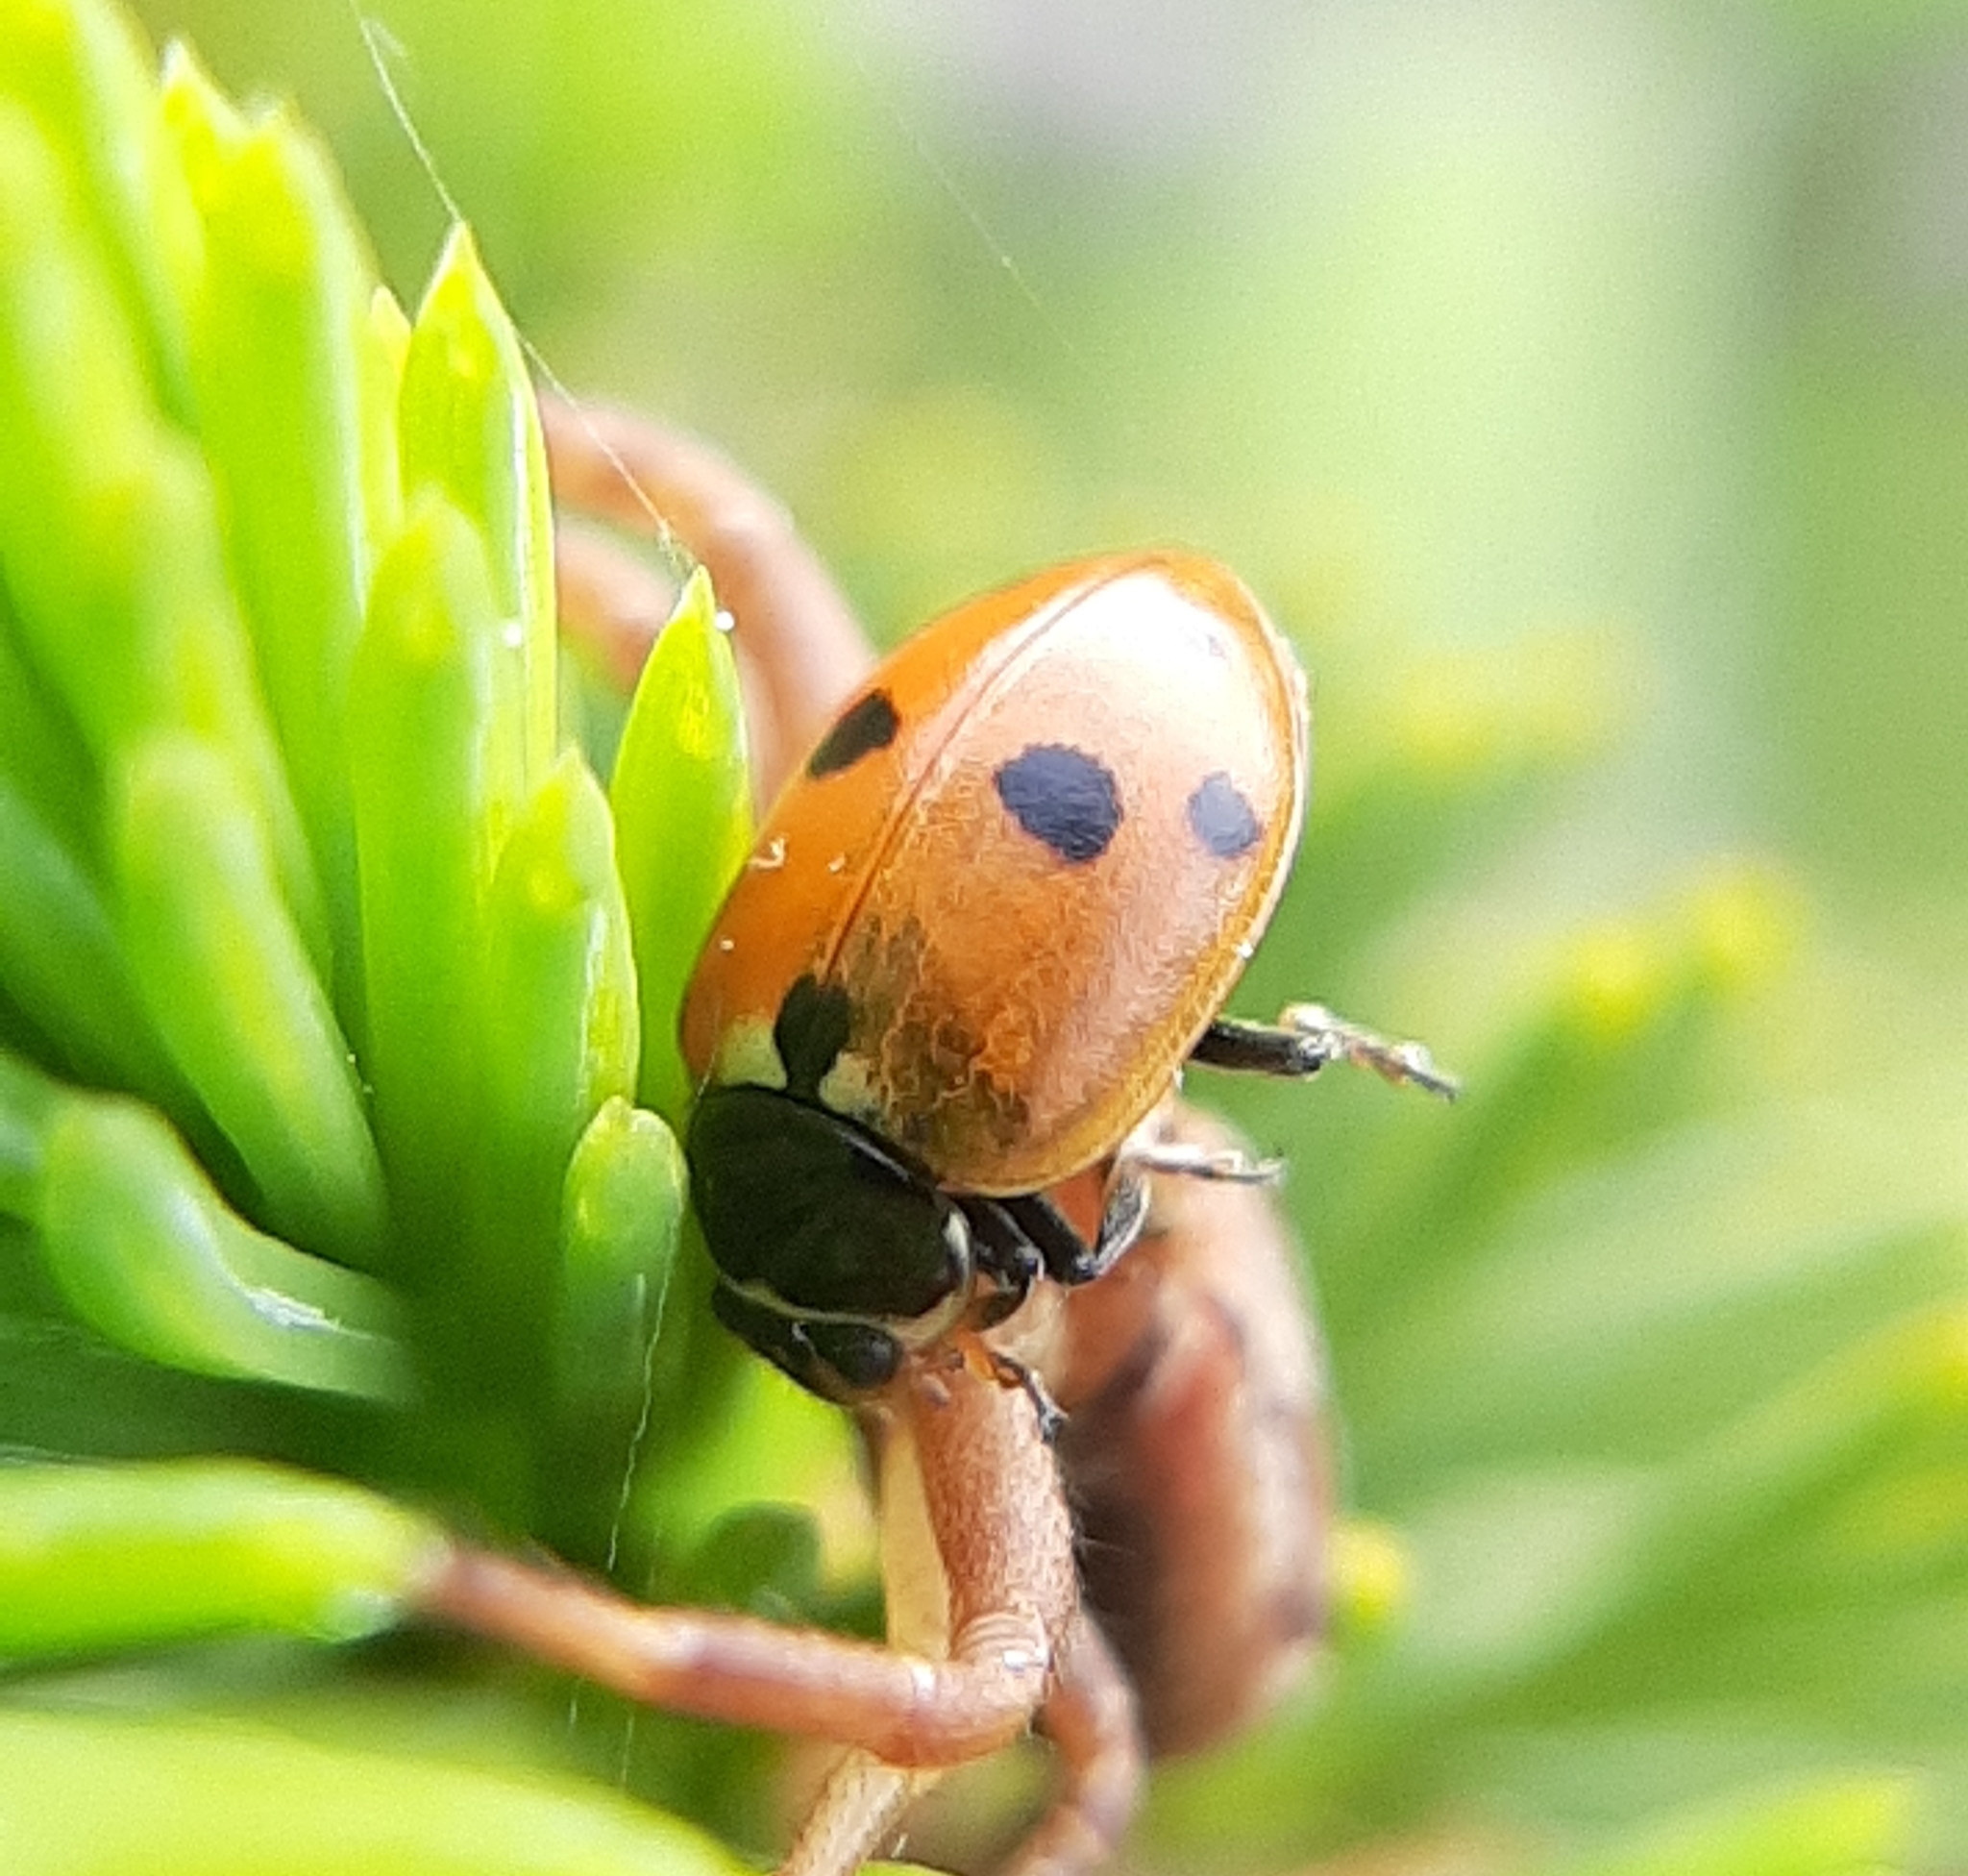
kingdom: Animalia
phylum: Arthropoda
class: Insecta
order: Coleoptera
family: Coccinellidae
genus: Hippodamia
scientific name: Hippodamia variegata
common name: Ladybird beetle
